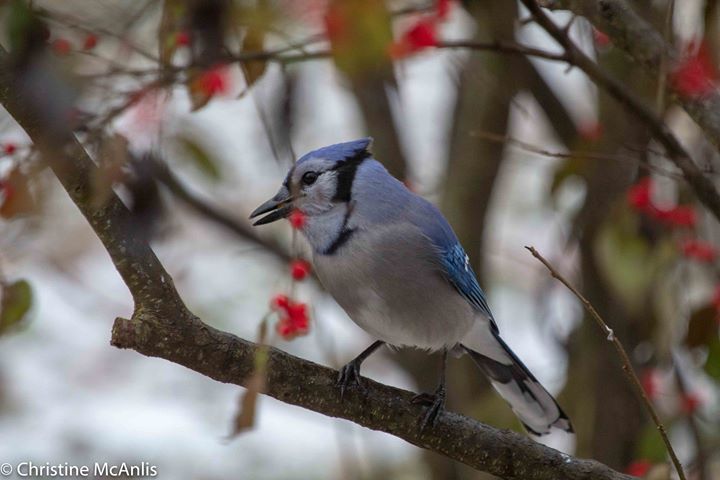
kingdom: Animalia
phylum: Chordata
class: Aves
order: Passeriformes
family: Corvidae
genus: Cyanocitta
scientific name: Cyanocitta cristata
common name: Blue jay
